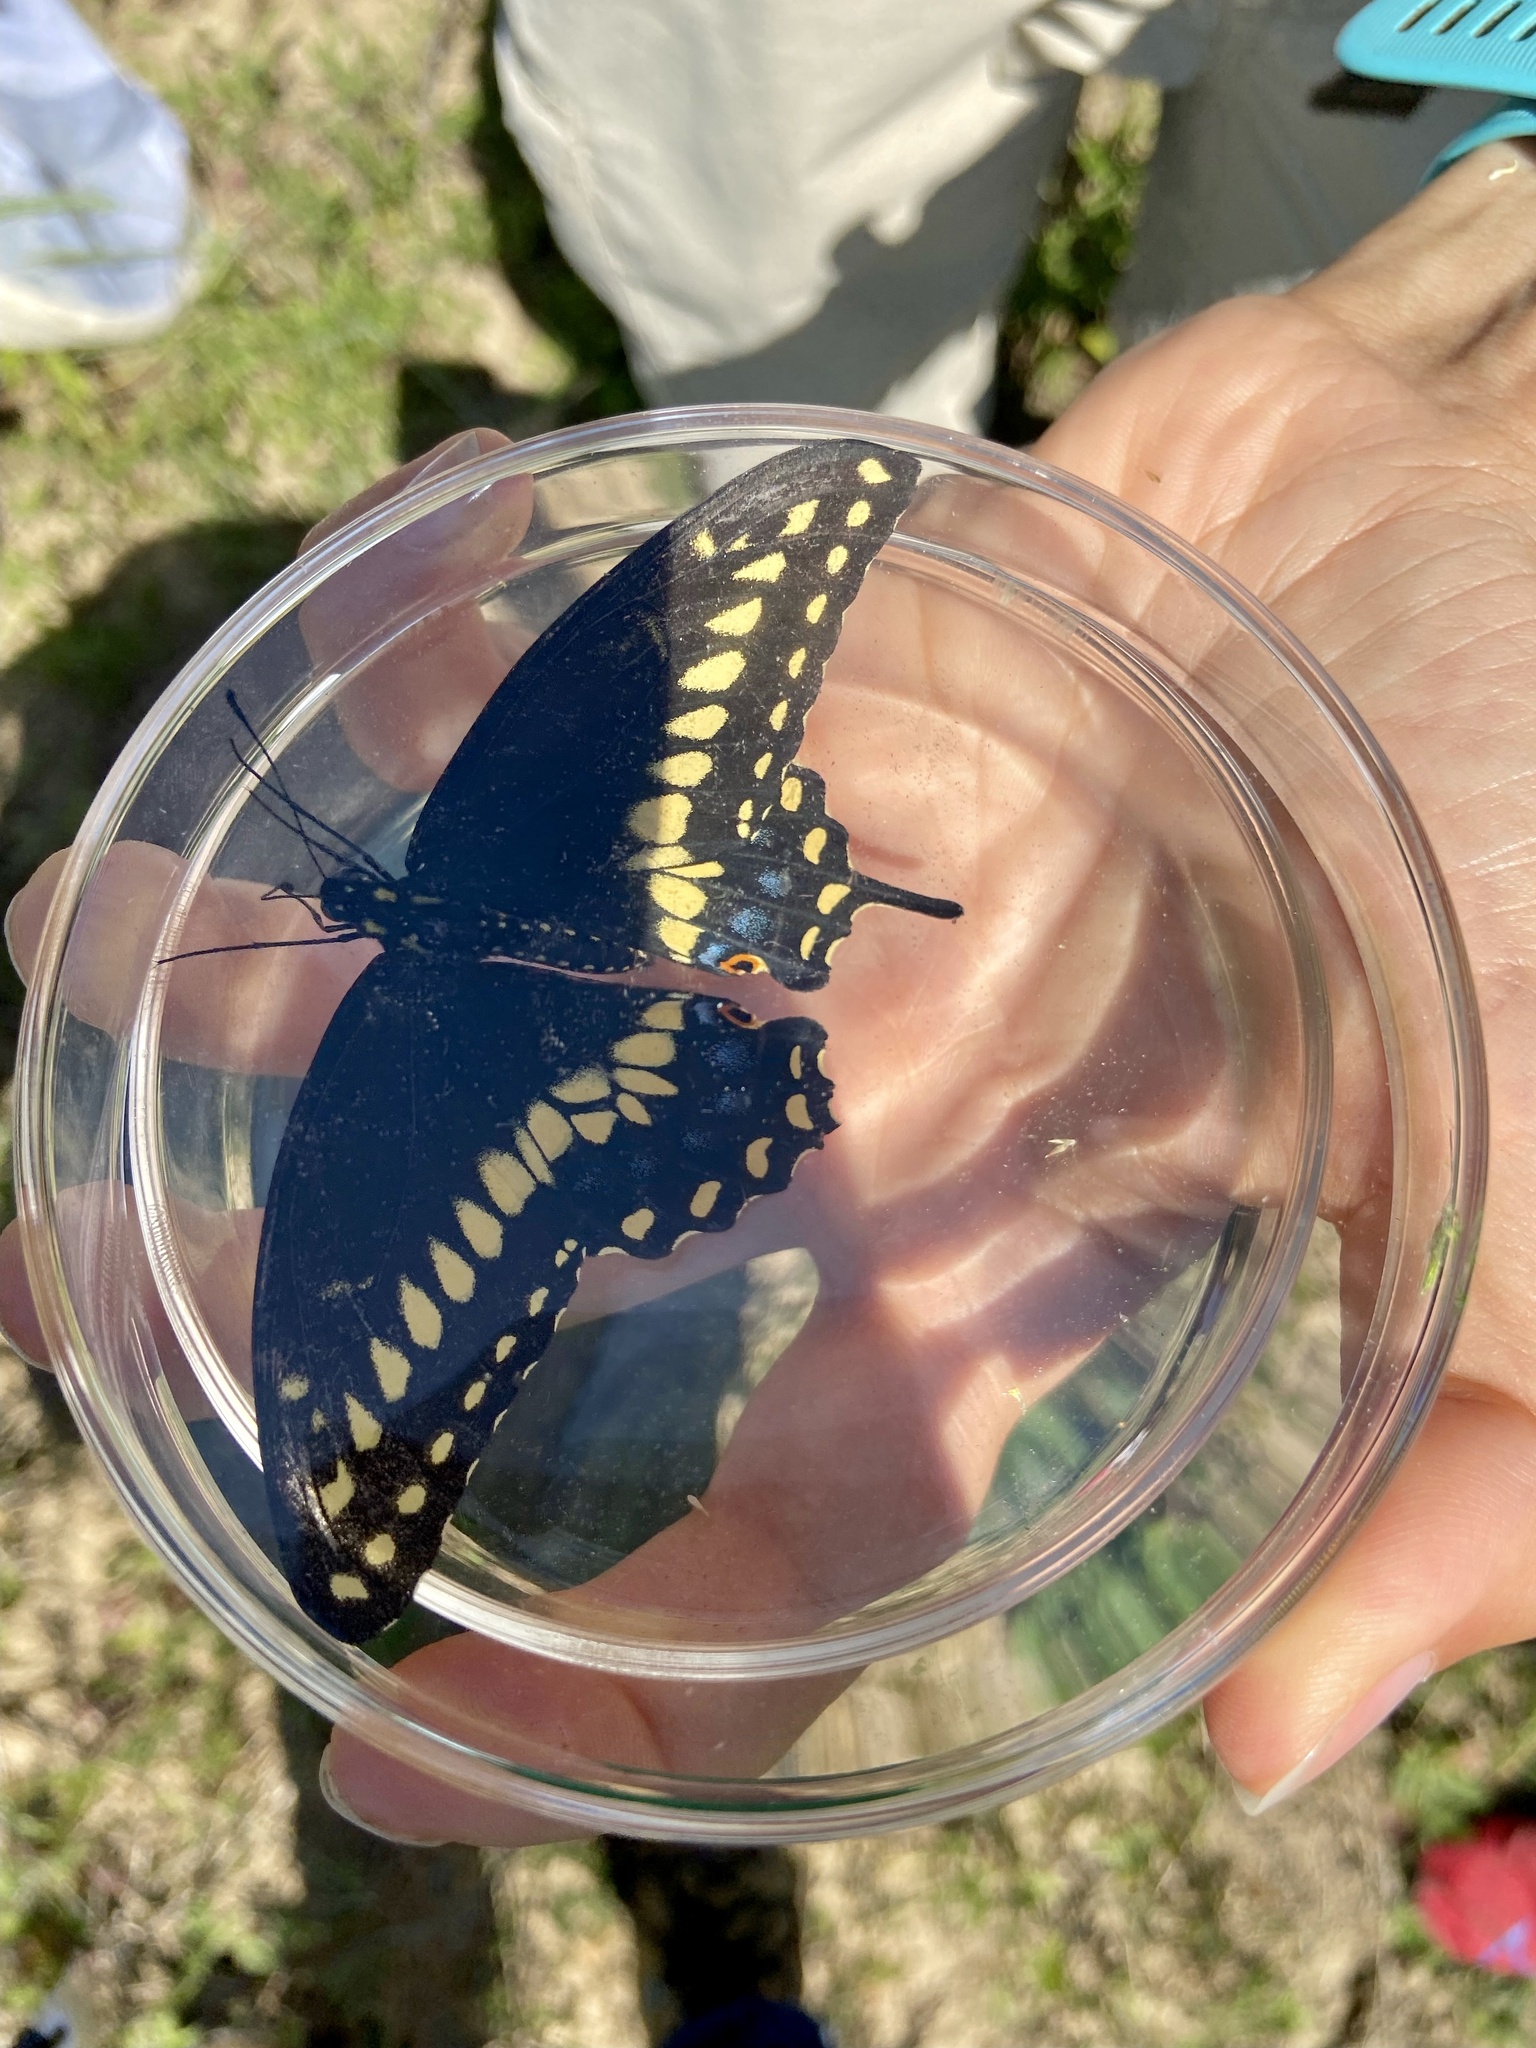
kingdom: Animalia
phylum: Arthropoda
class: Insecta
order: Lepidoptera
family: Papilionidae
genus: Papilio
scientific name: Papilio polyxenes
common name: Black swallowtail
